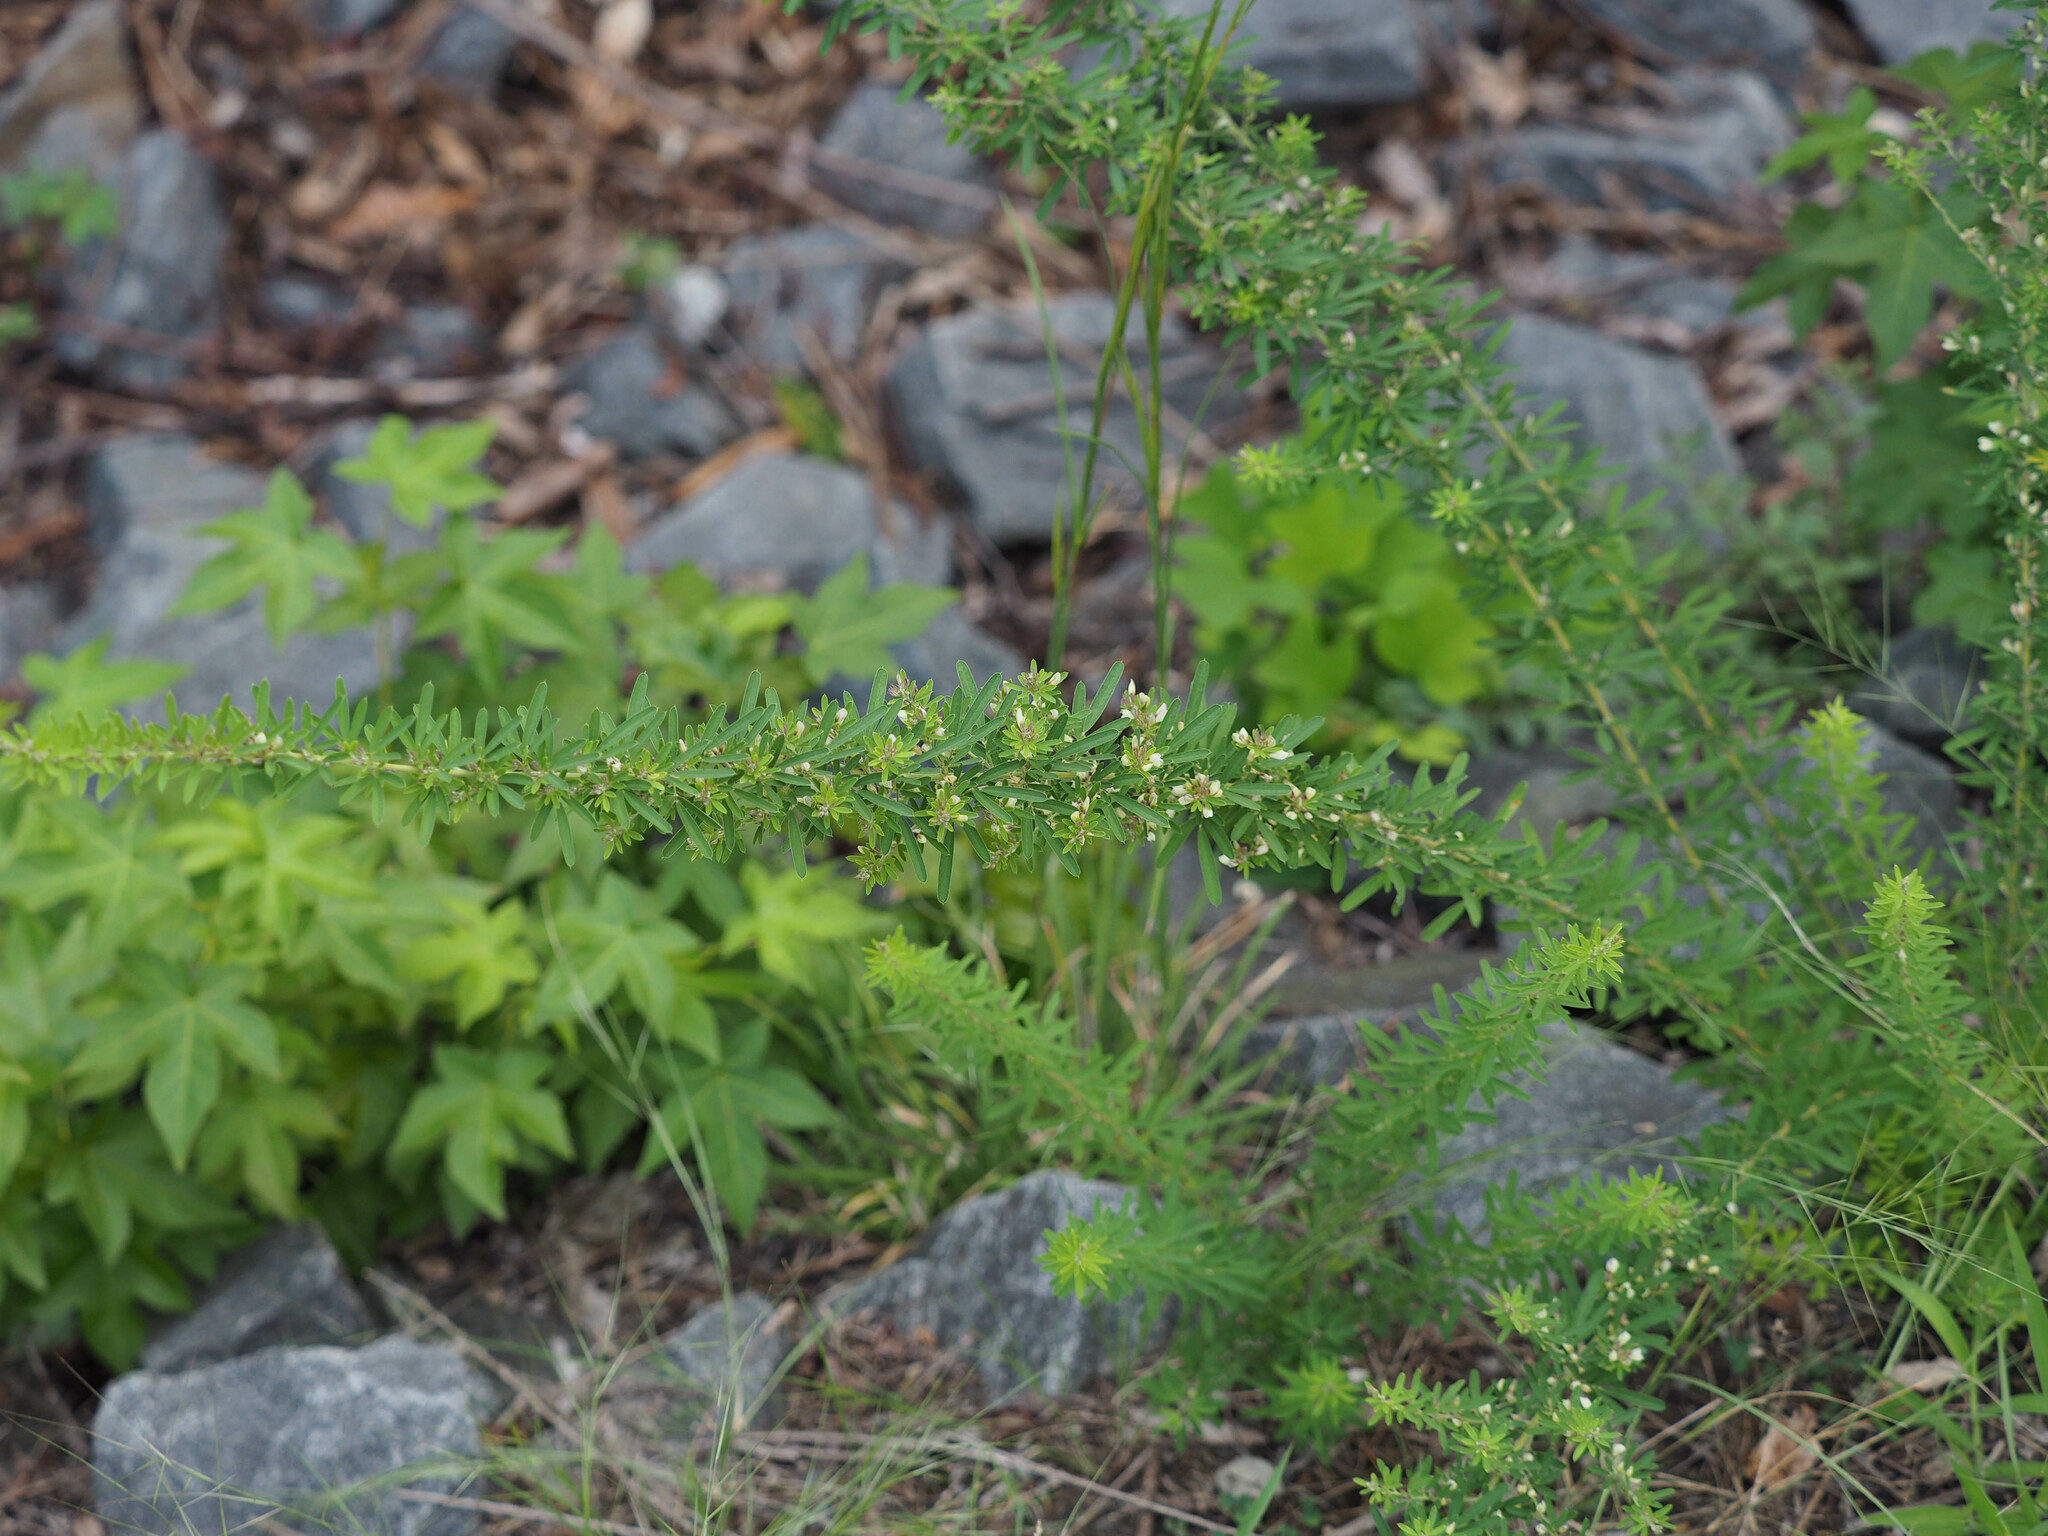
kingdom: Plantae
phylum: Tracheophyta
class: Magnoliopsida
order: Fabales
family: Fabaceae
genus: Lespedeza
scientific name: Lespedeza cuneata
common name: Chinese bush-clover
